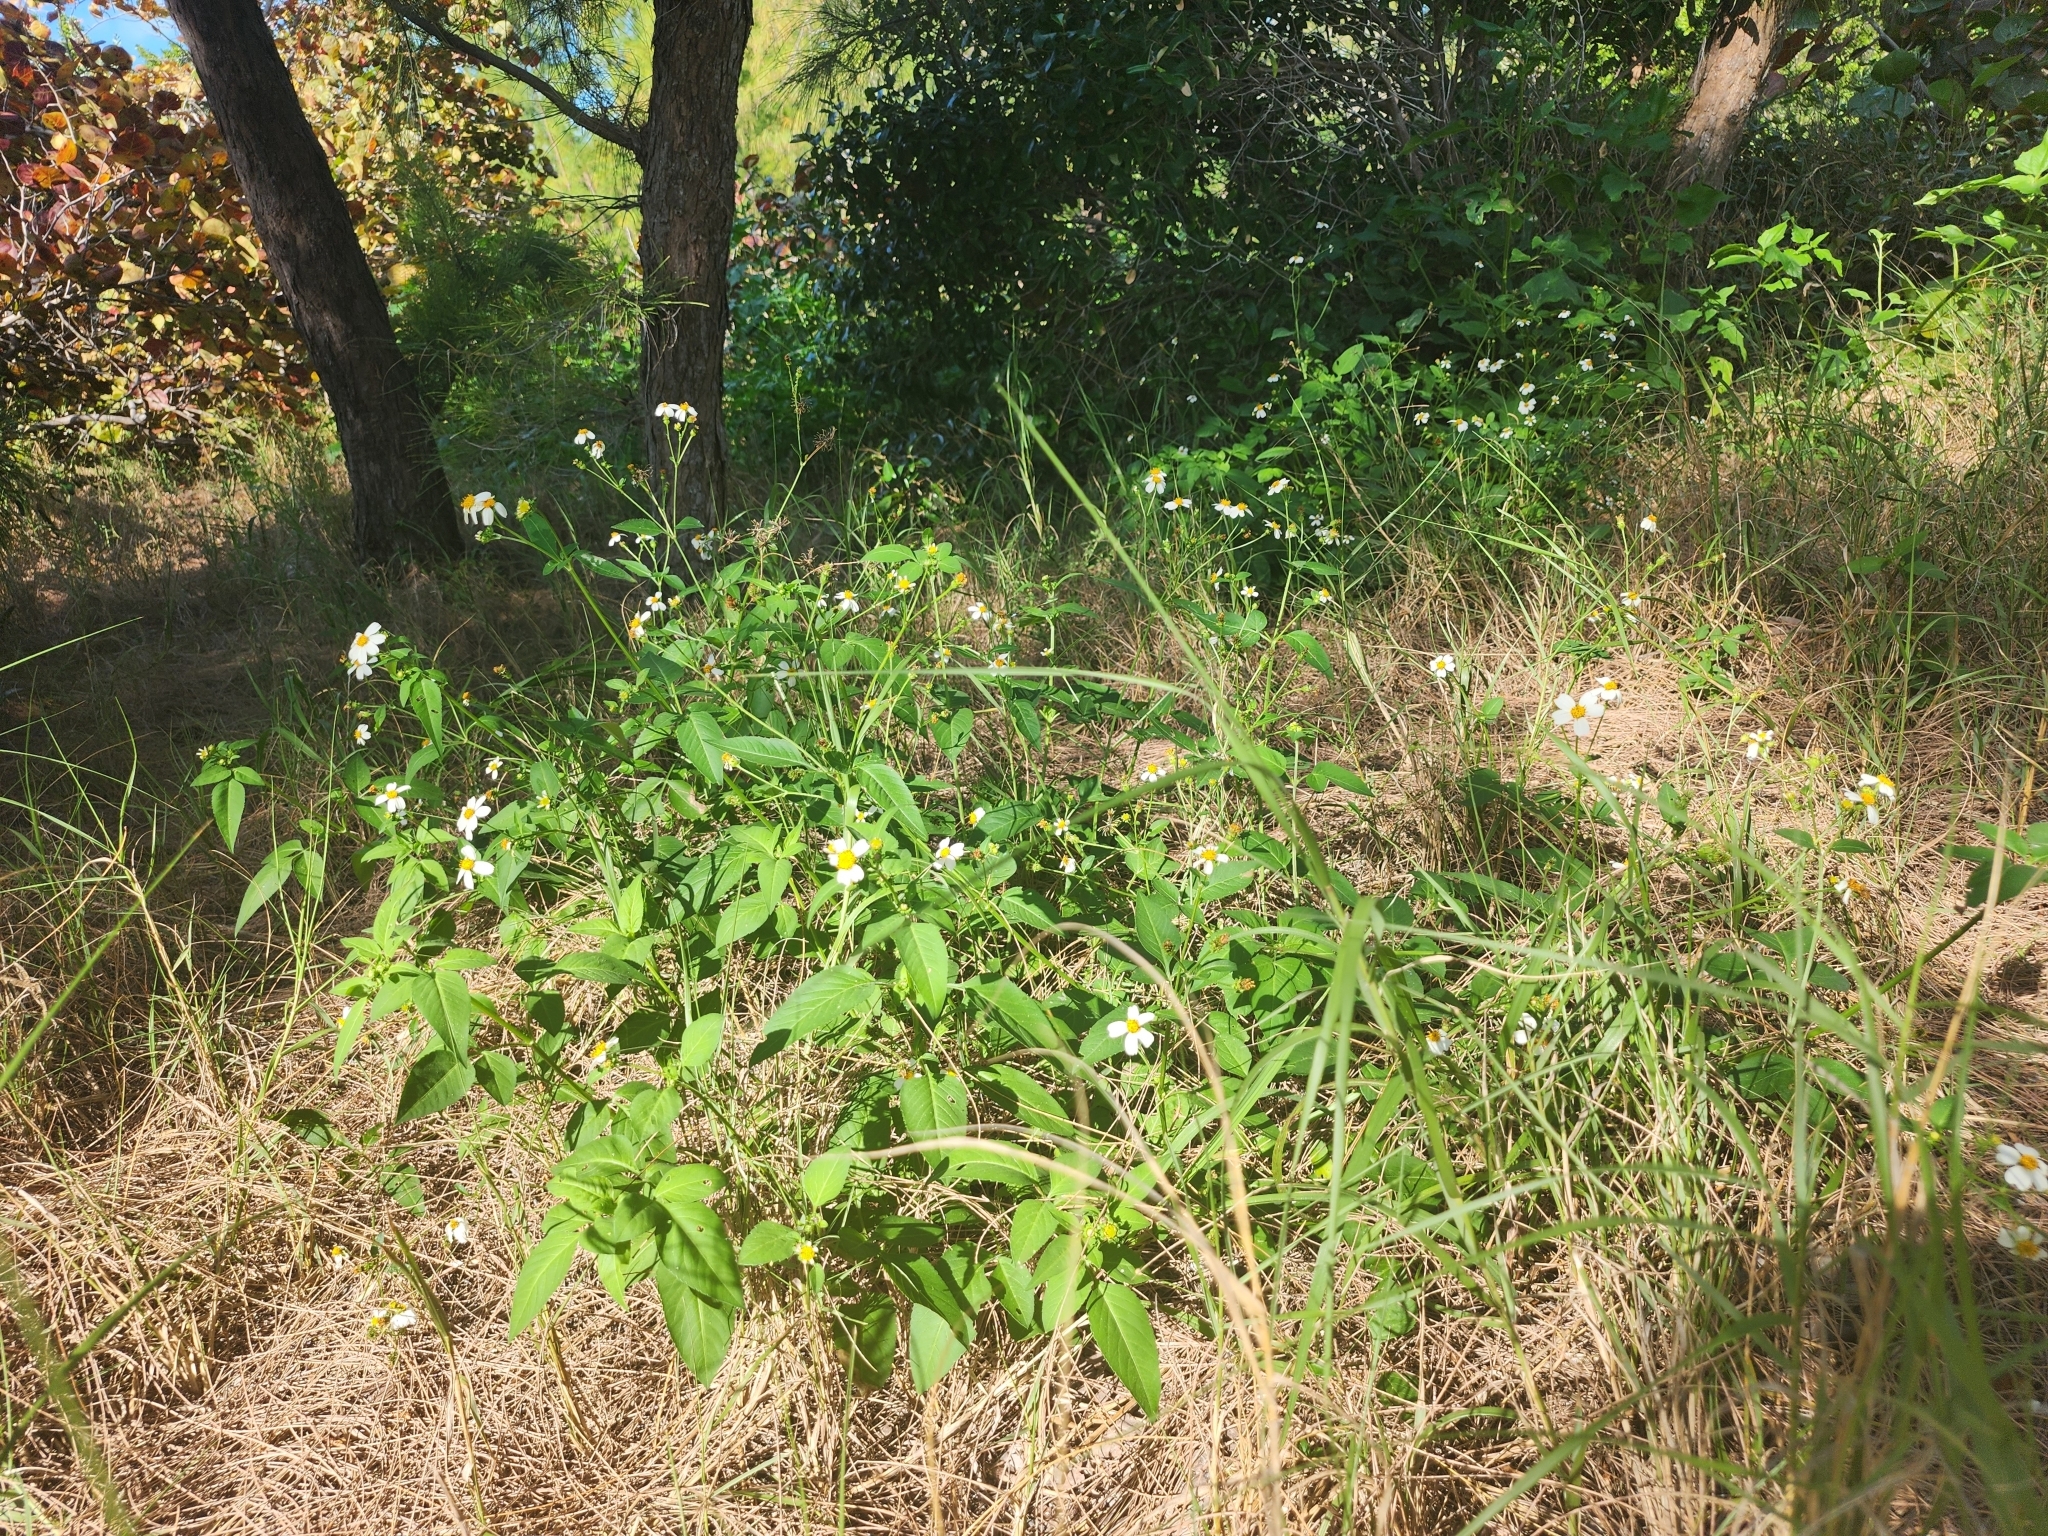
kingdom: Plantae
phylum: Tracheophyta
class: Magnoliopsida
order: Asterales
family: Asteraceae
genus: Bidens
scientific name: Bidens alba
